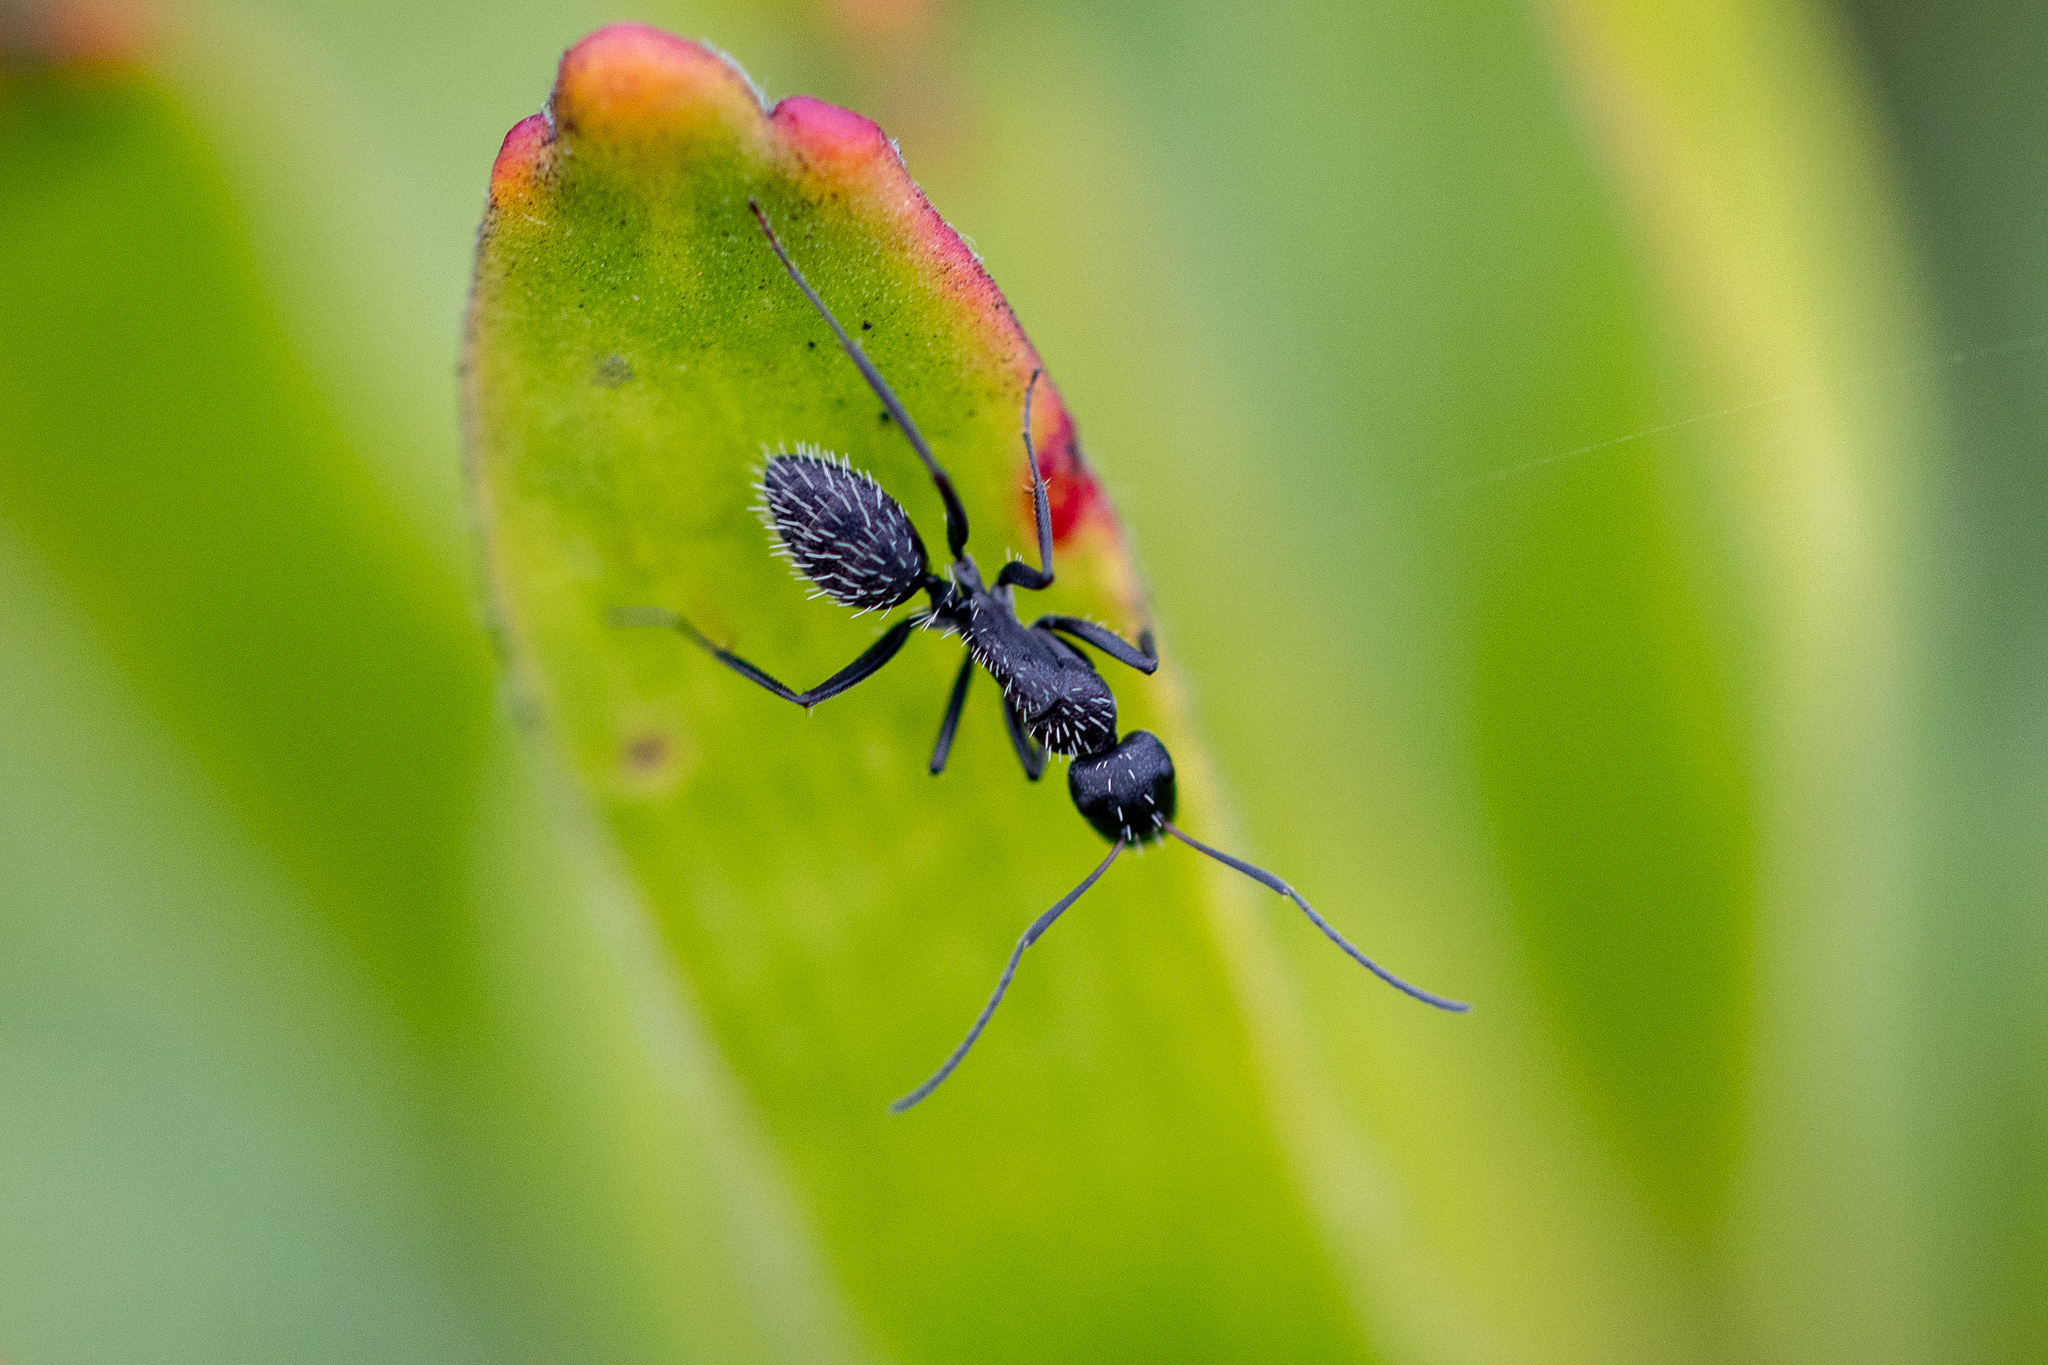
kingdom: Animalia
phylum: Arthropoda
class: Insecta
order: Hymenoptera
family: Formicidae
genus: Camponotus
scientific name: Camponotus niveosetosus
